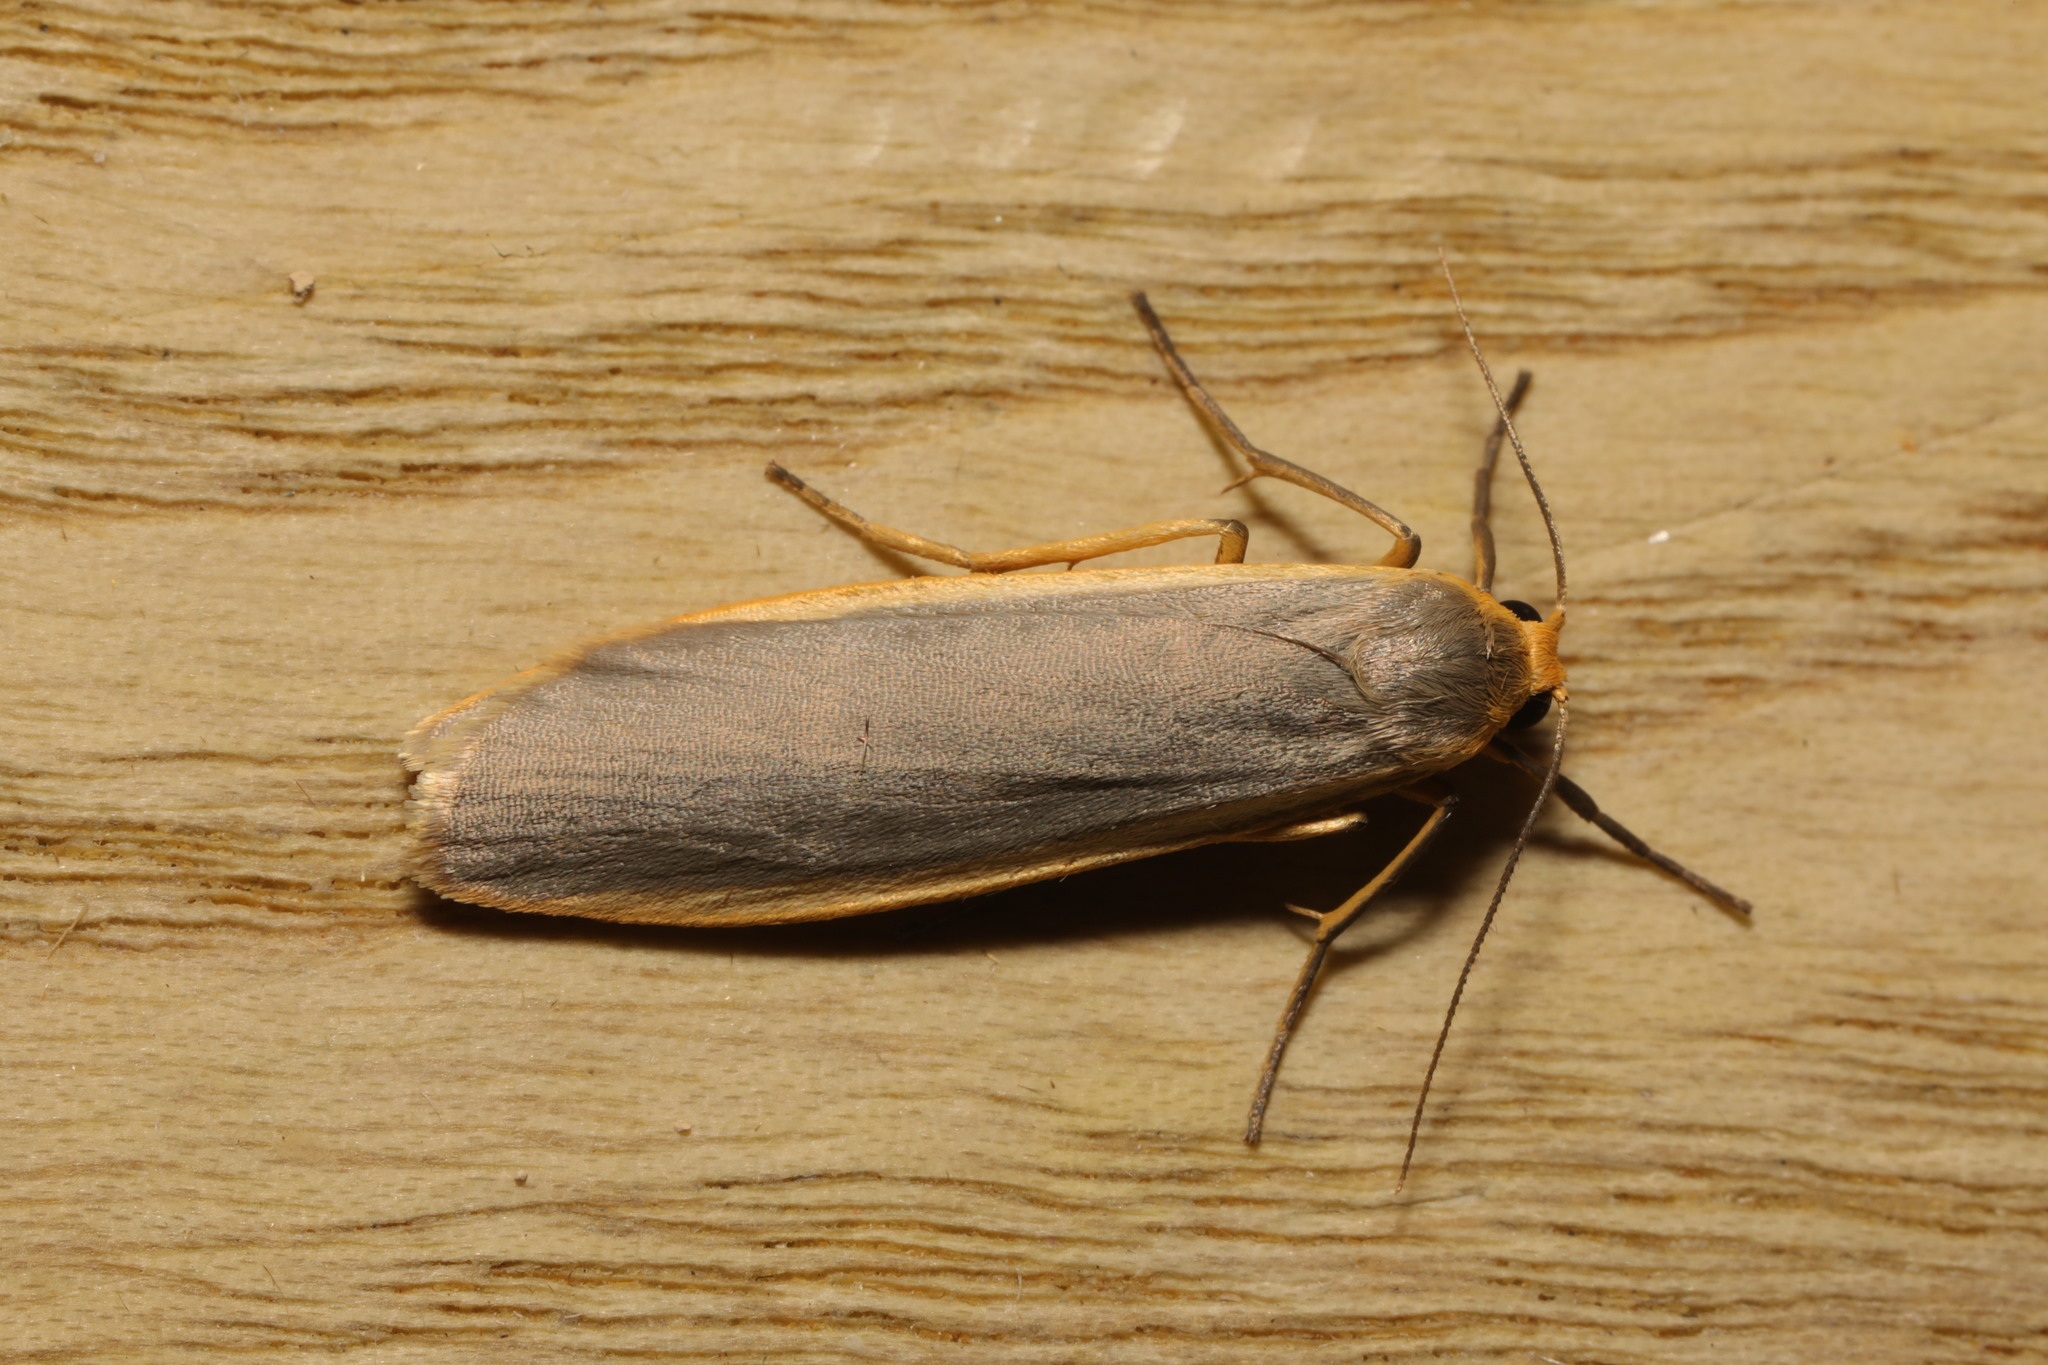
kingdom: Animalia
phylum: Arthropoda
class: Insecta
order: Lepidoptera
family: Erebidae
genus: Nyea
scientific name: Nyea lurideola
